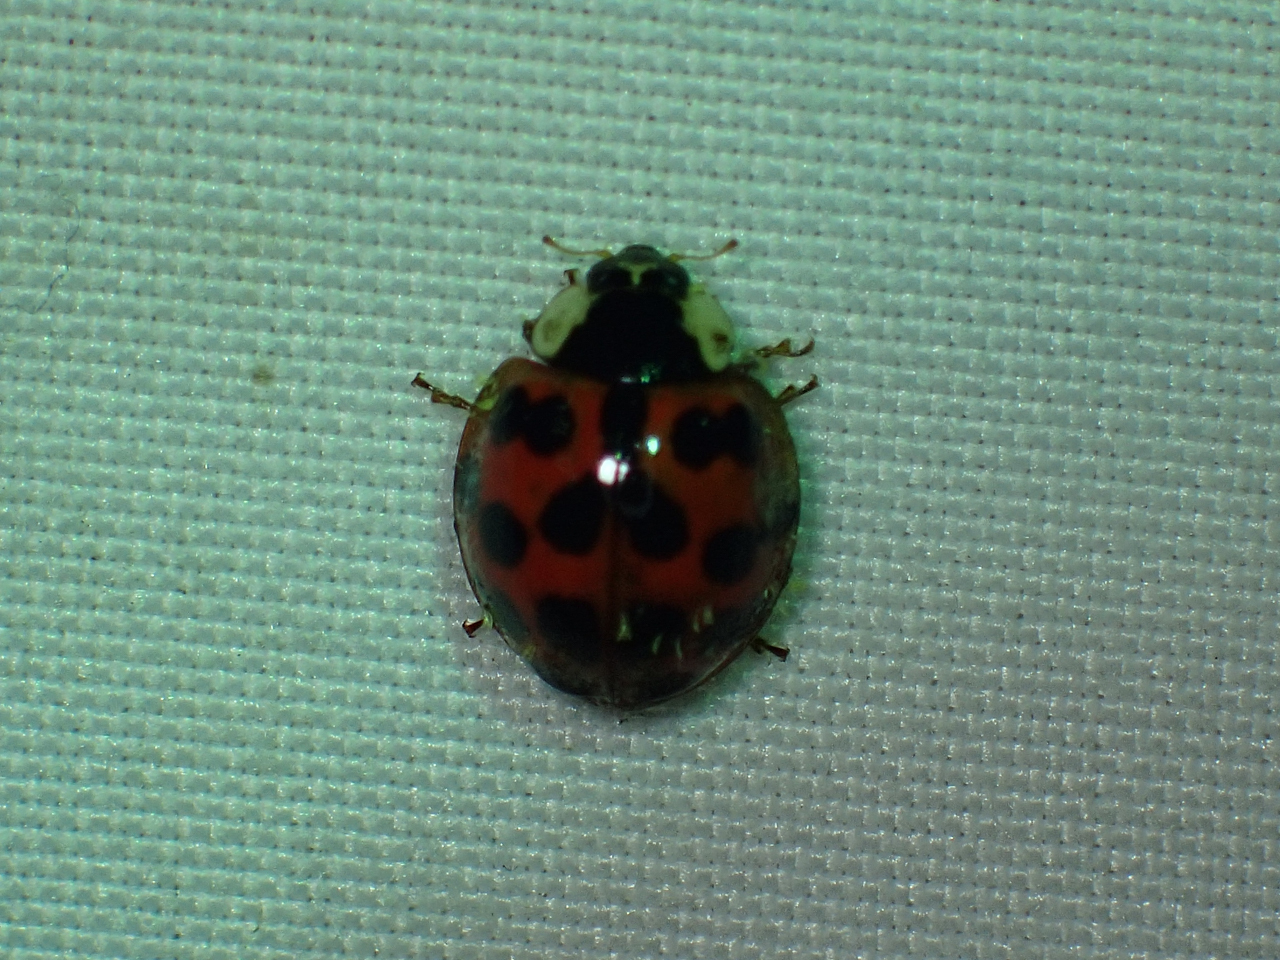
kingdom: Animalia
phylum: Arthropoda
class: Insecta
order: Coleoptera
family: Coccinellidae
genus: Harmonia
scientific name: Harmonia axyridis
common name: Harlequin ladybird
